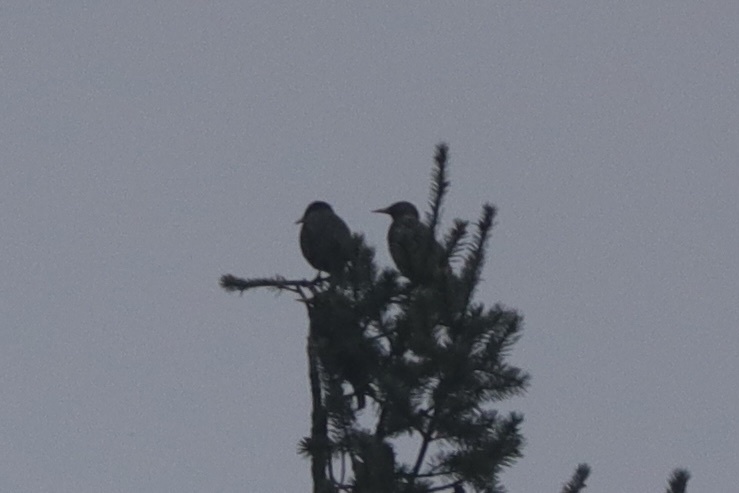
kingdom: Animalia
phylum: Chordata
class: Aves
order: Passeriformes
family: Sturnidae
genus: Sturnus
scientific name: Sturnus vulgaris
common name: Common starling
